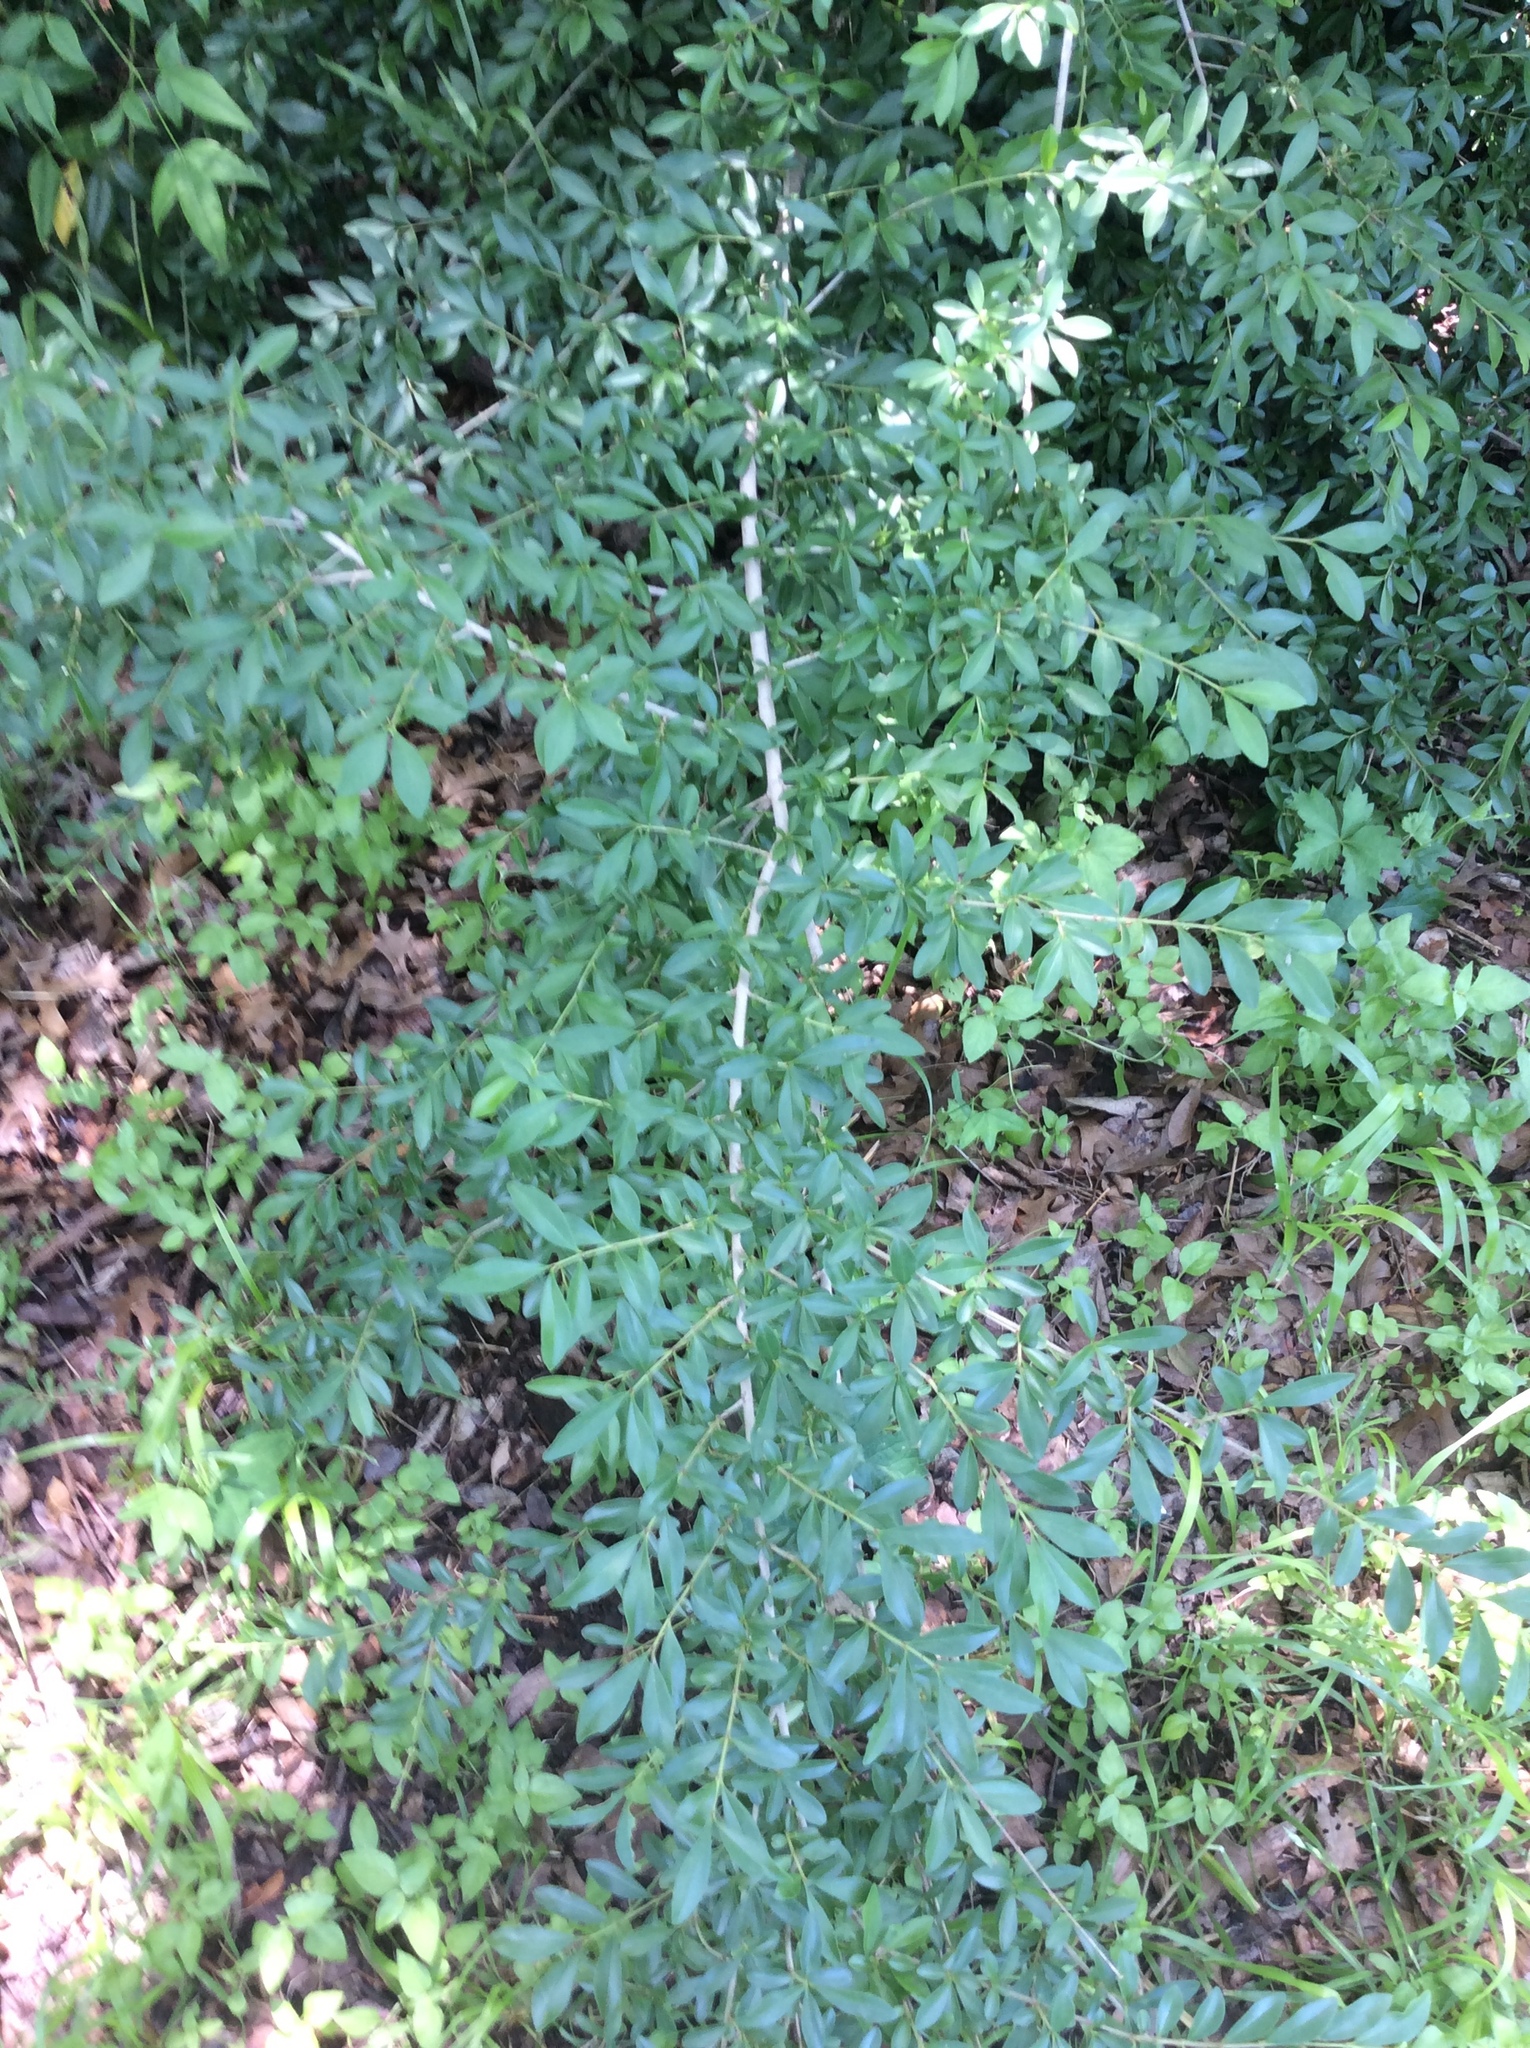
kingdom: Plantae
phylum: Tracheophyta
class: Magnoliopsida
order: Lamiales
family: Oleaceae
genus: Ligustrum
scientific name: Ligustrum quihoui
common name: Waxyleaf privet
